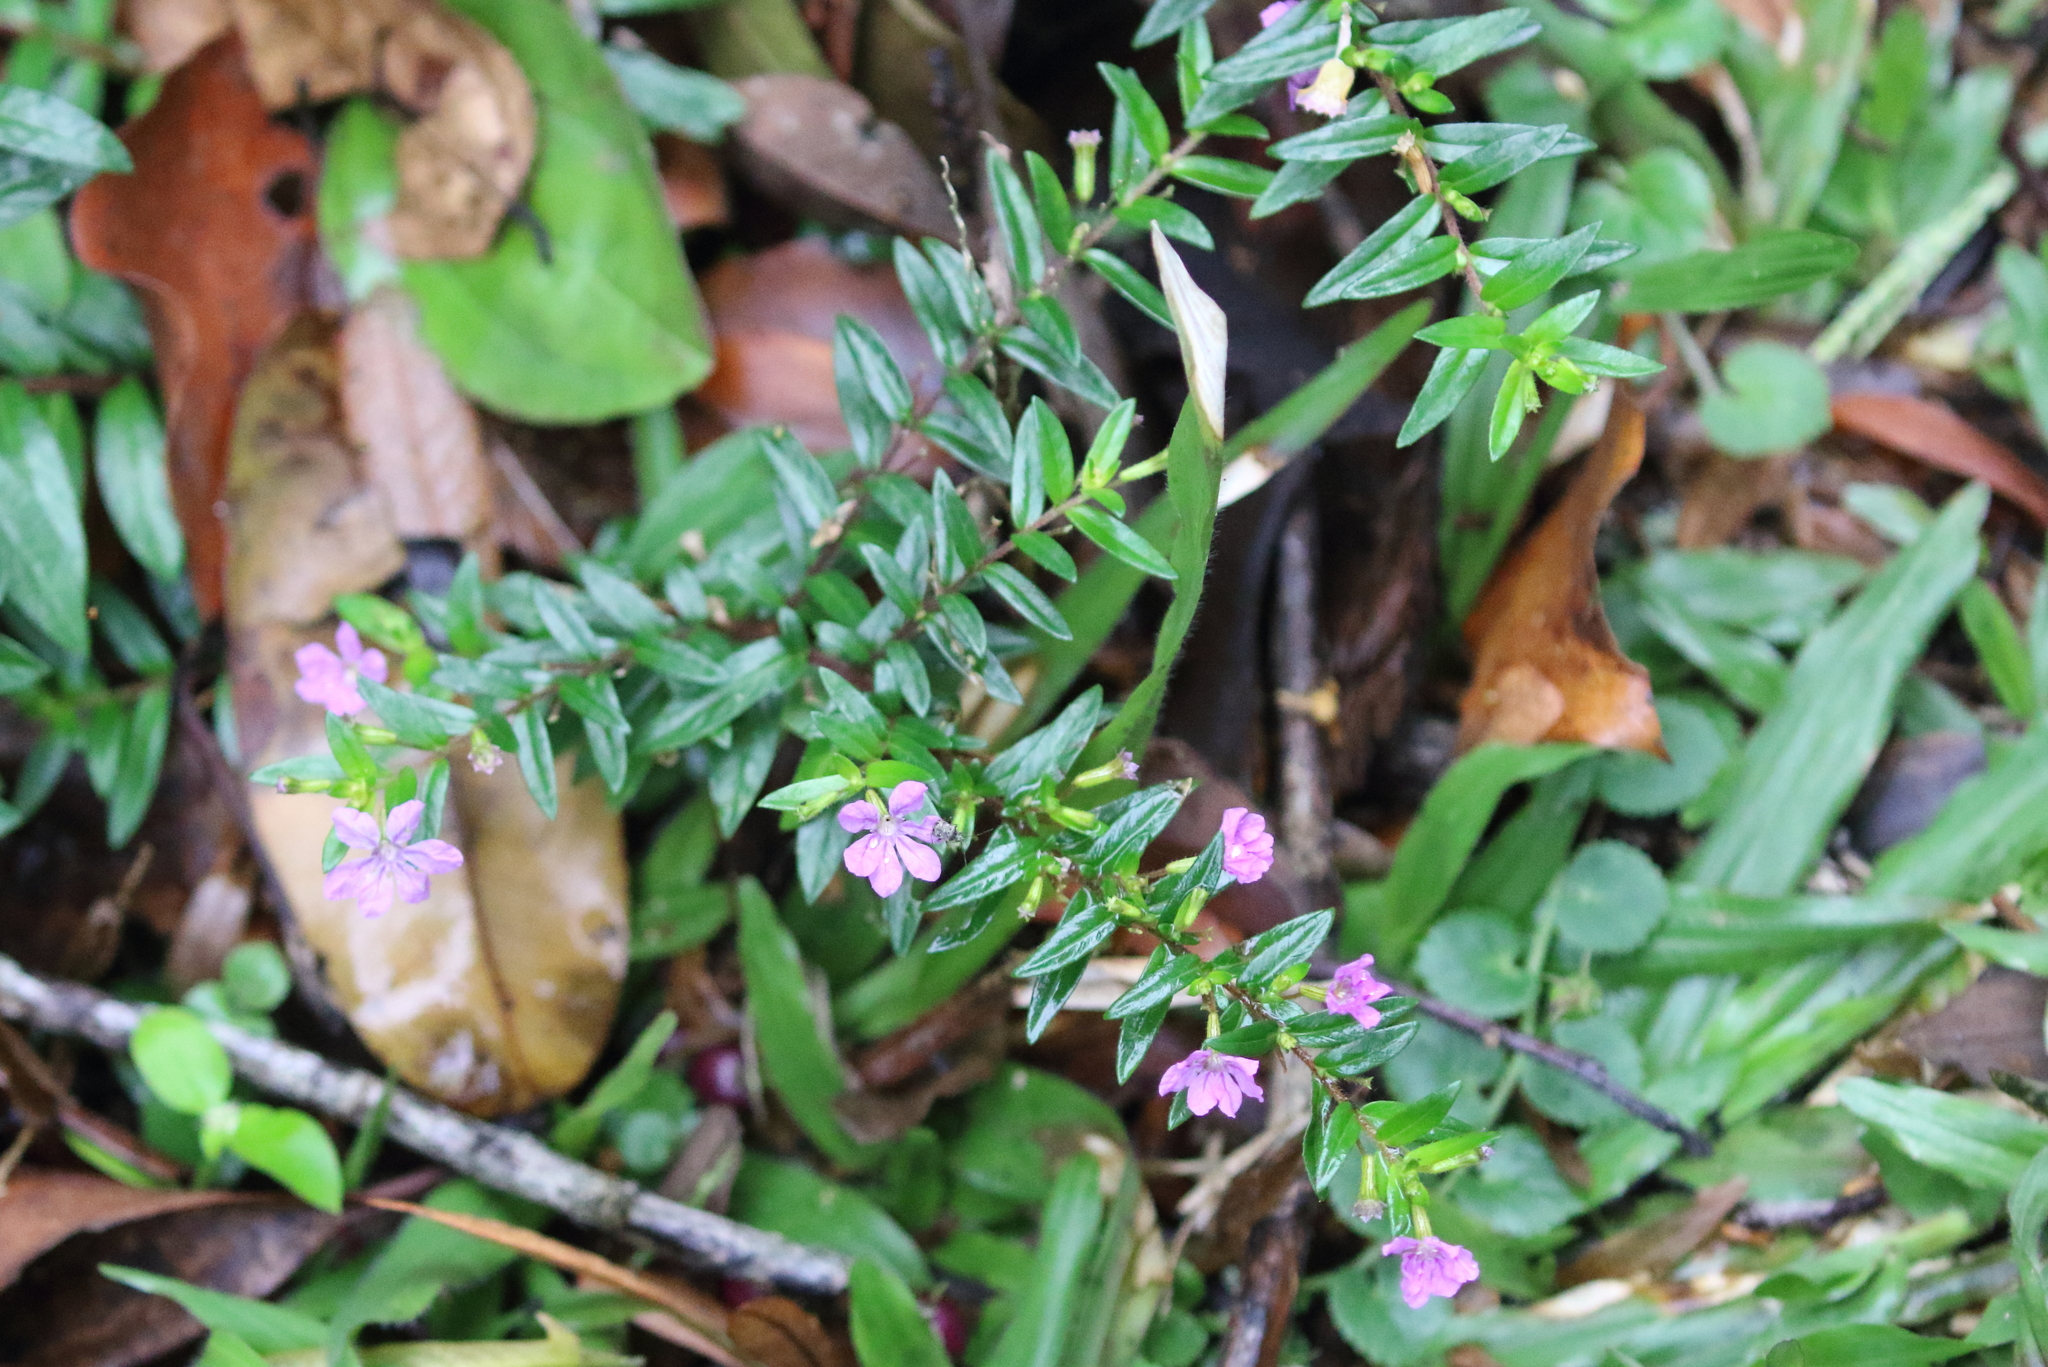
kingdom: Plantae
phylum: Tracheophyta
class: Magnoliopsida
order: Myrtales
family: Lythraceae
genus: Cuphea
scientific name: Cuphea hyssopifolia
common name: False heather
